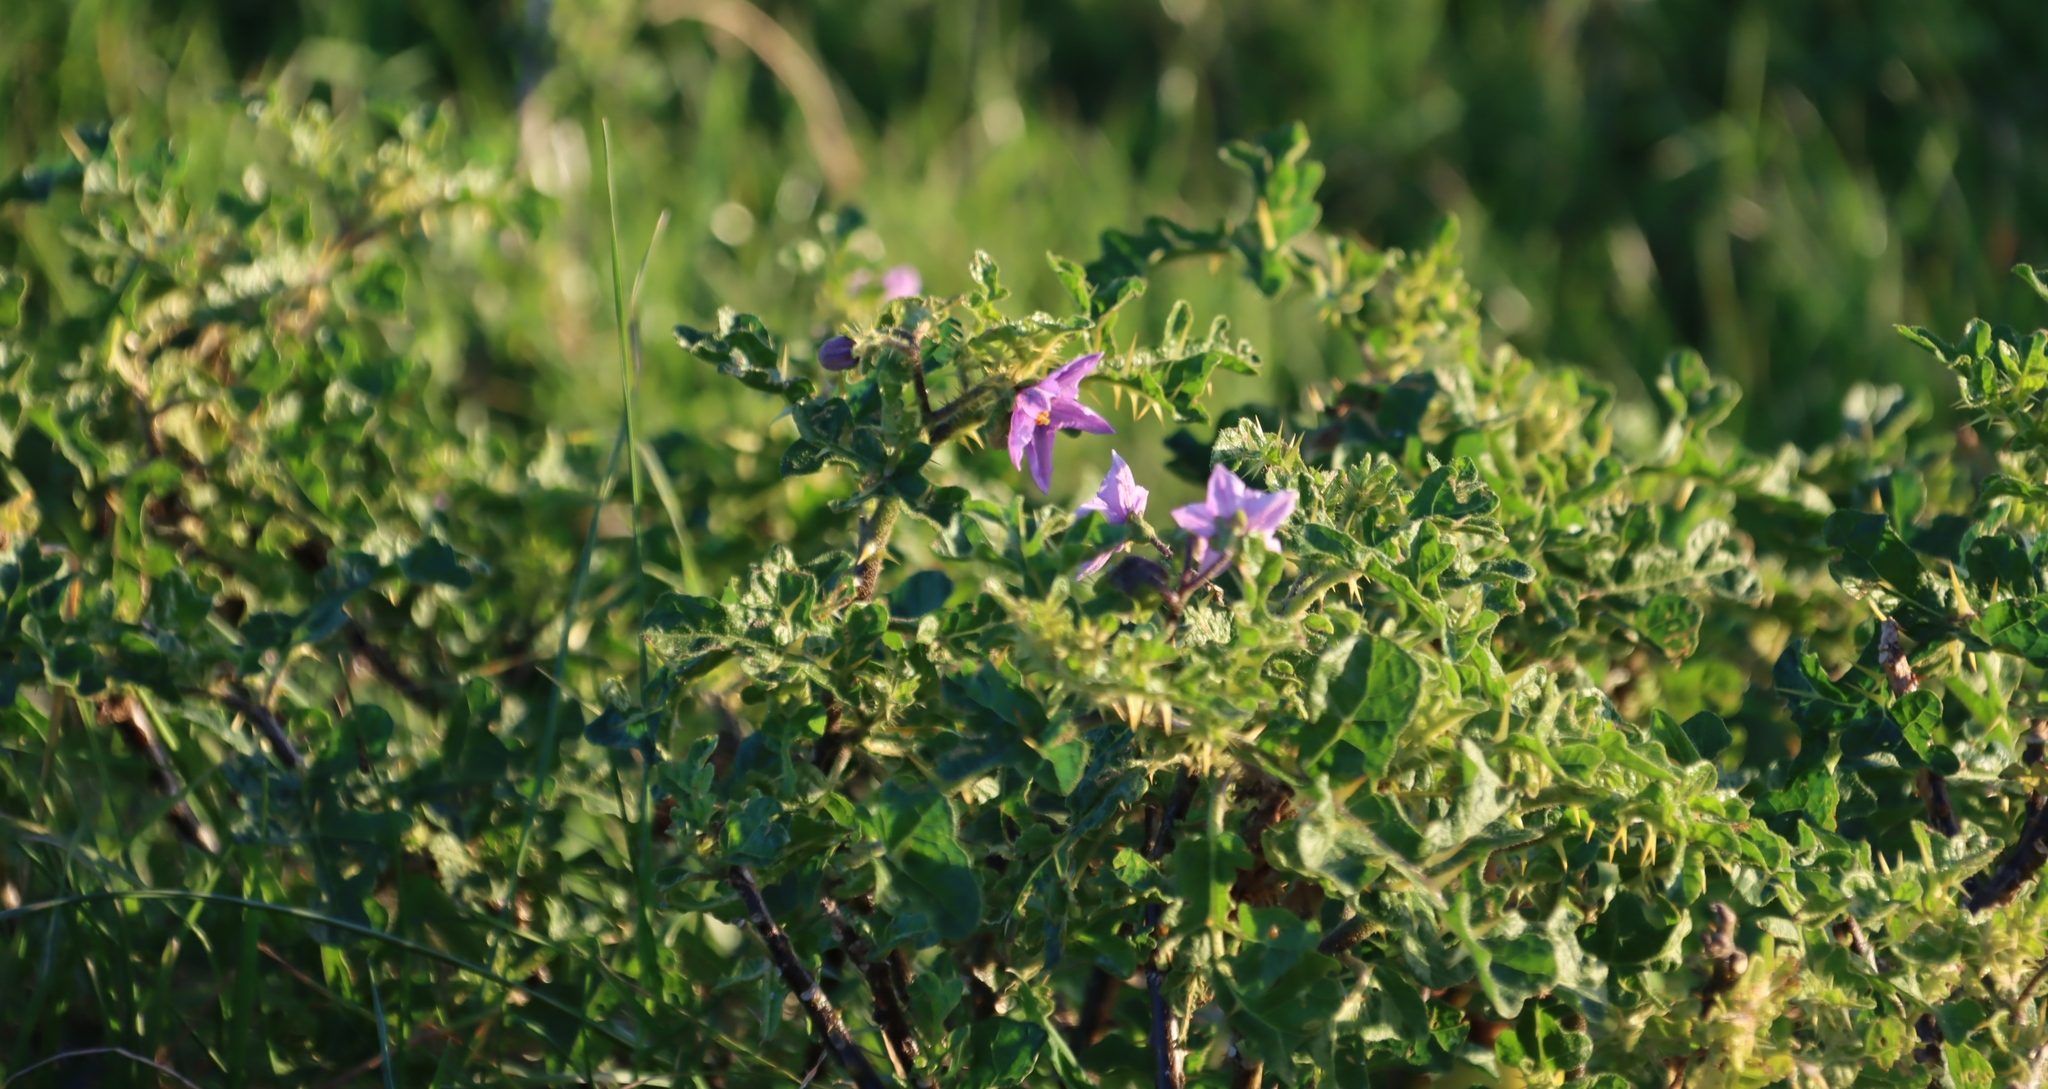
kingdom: Plantae
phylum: Tracheophyta
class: Magnoliopsida
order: Solanales
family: Solanaceae
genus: Solanum
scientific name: Solanum linnaeanum
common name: Nightshade
